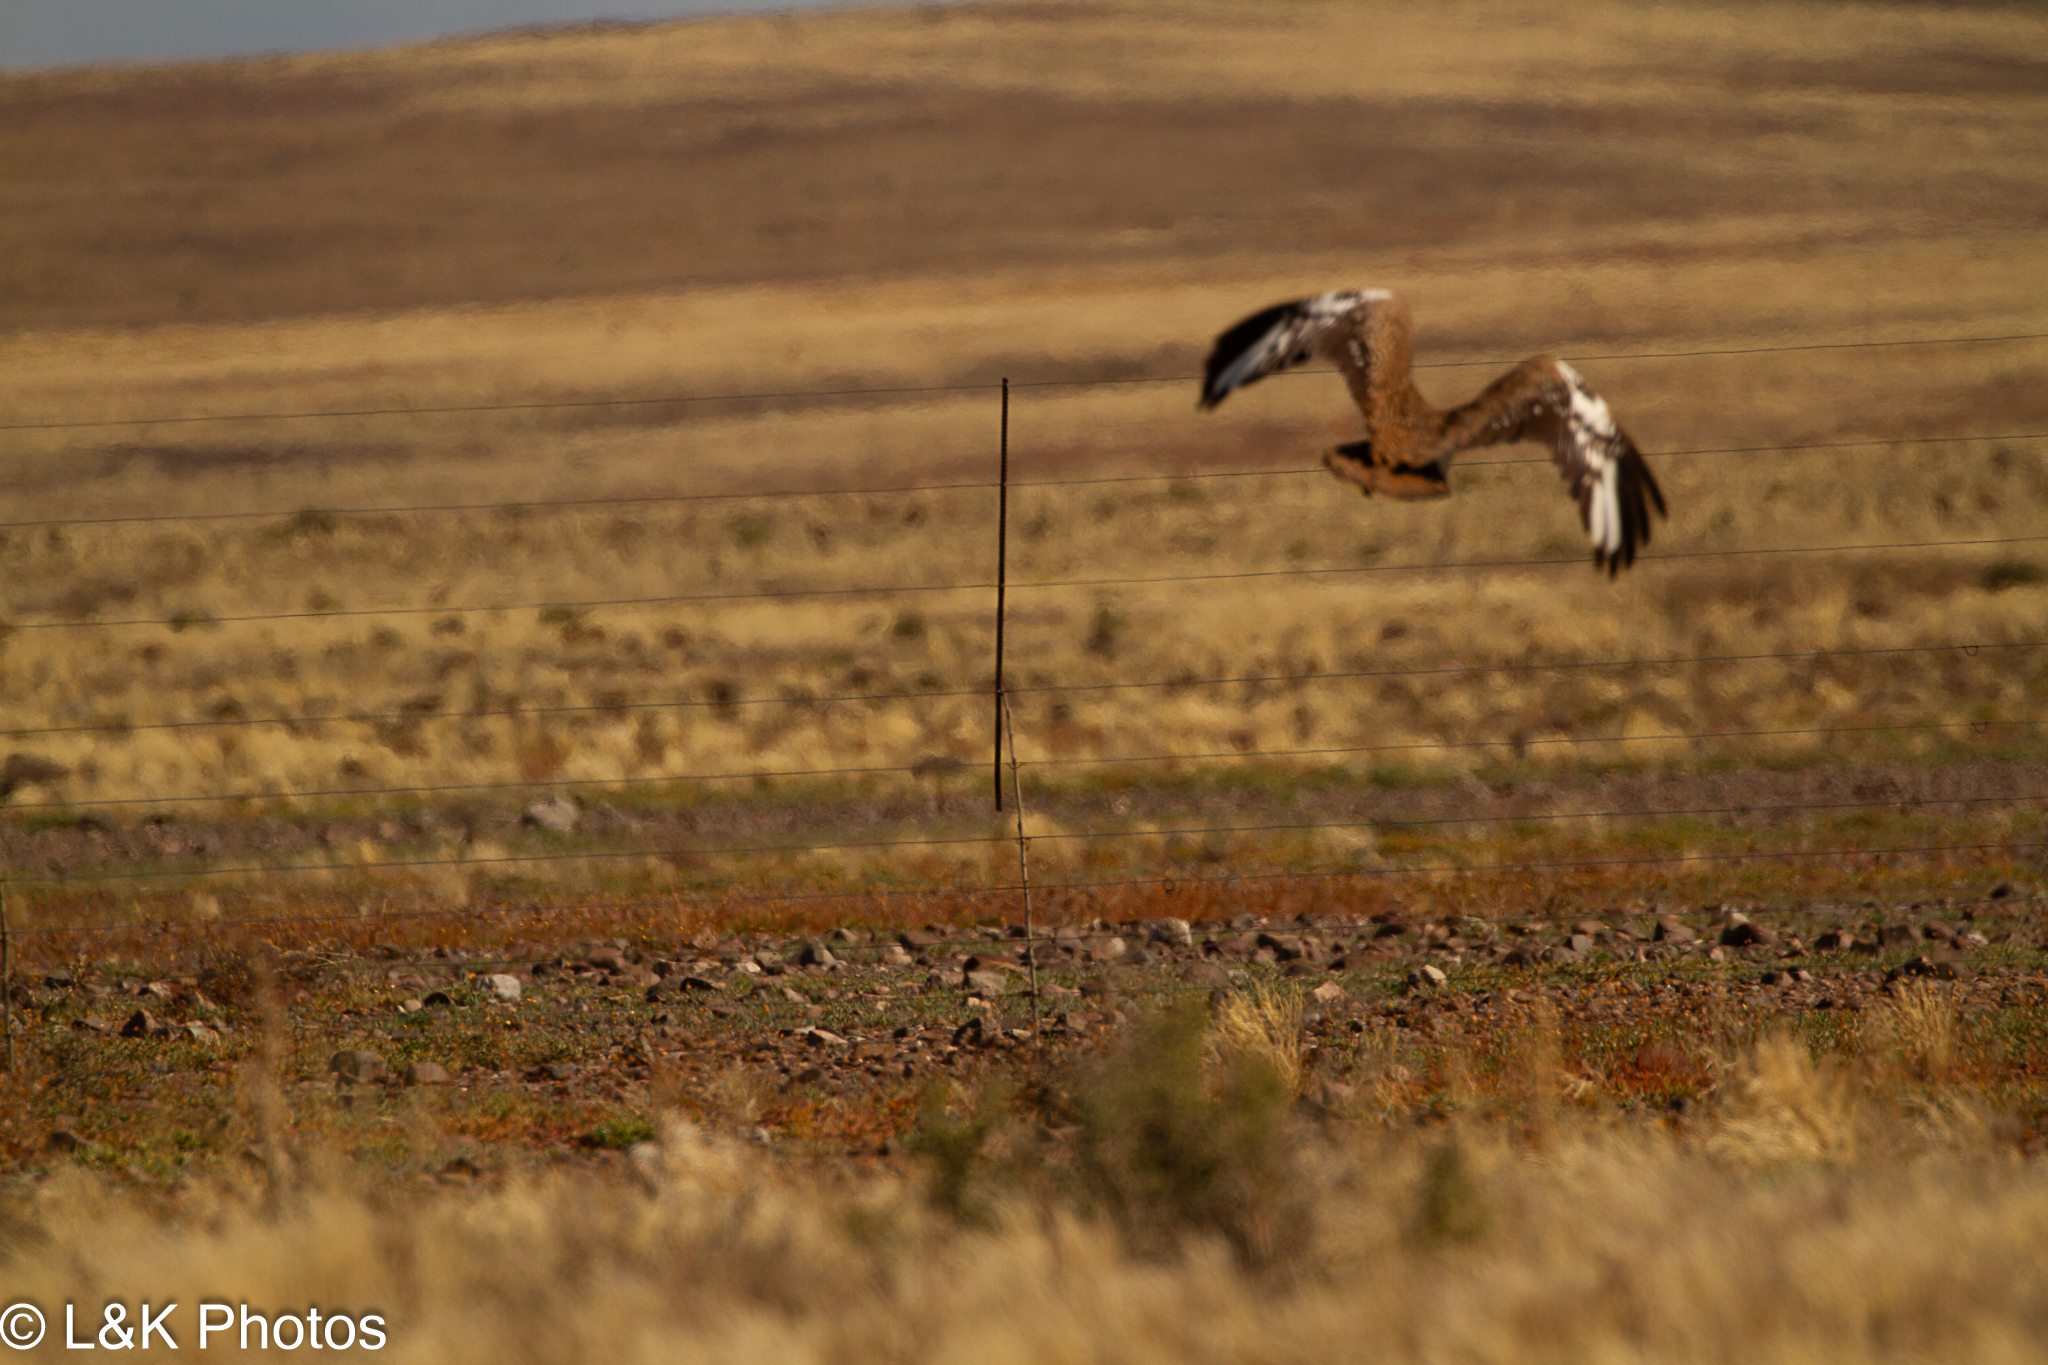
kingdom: Animalia
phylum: Chordata
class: Aves
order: Otidiformes
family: Otididae
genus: Neotis
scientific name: Neotis ludwigii
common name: Ludwig's bustard
